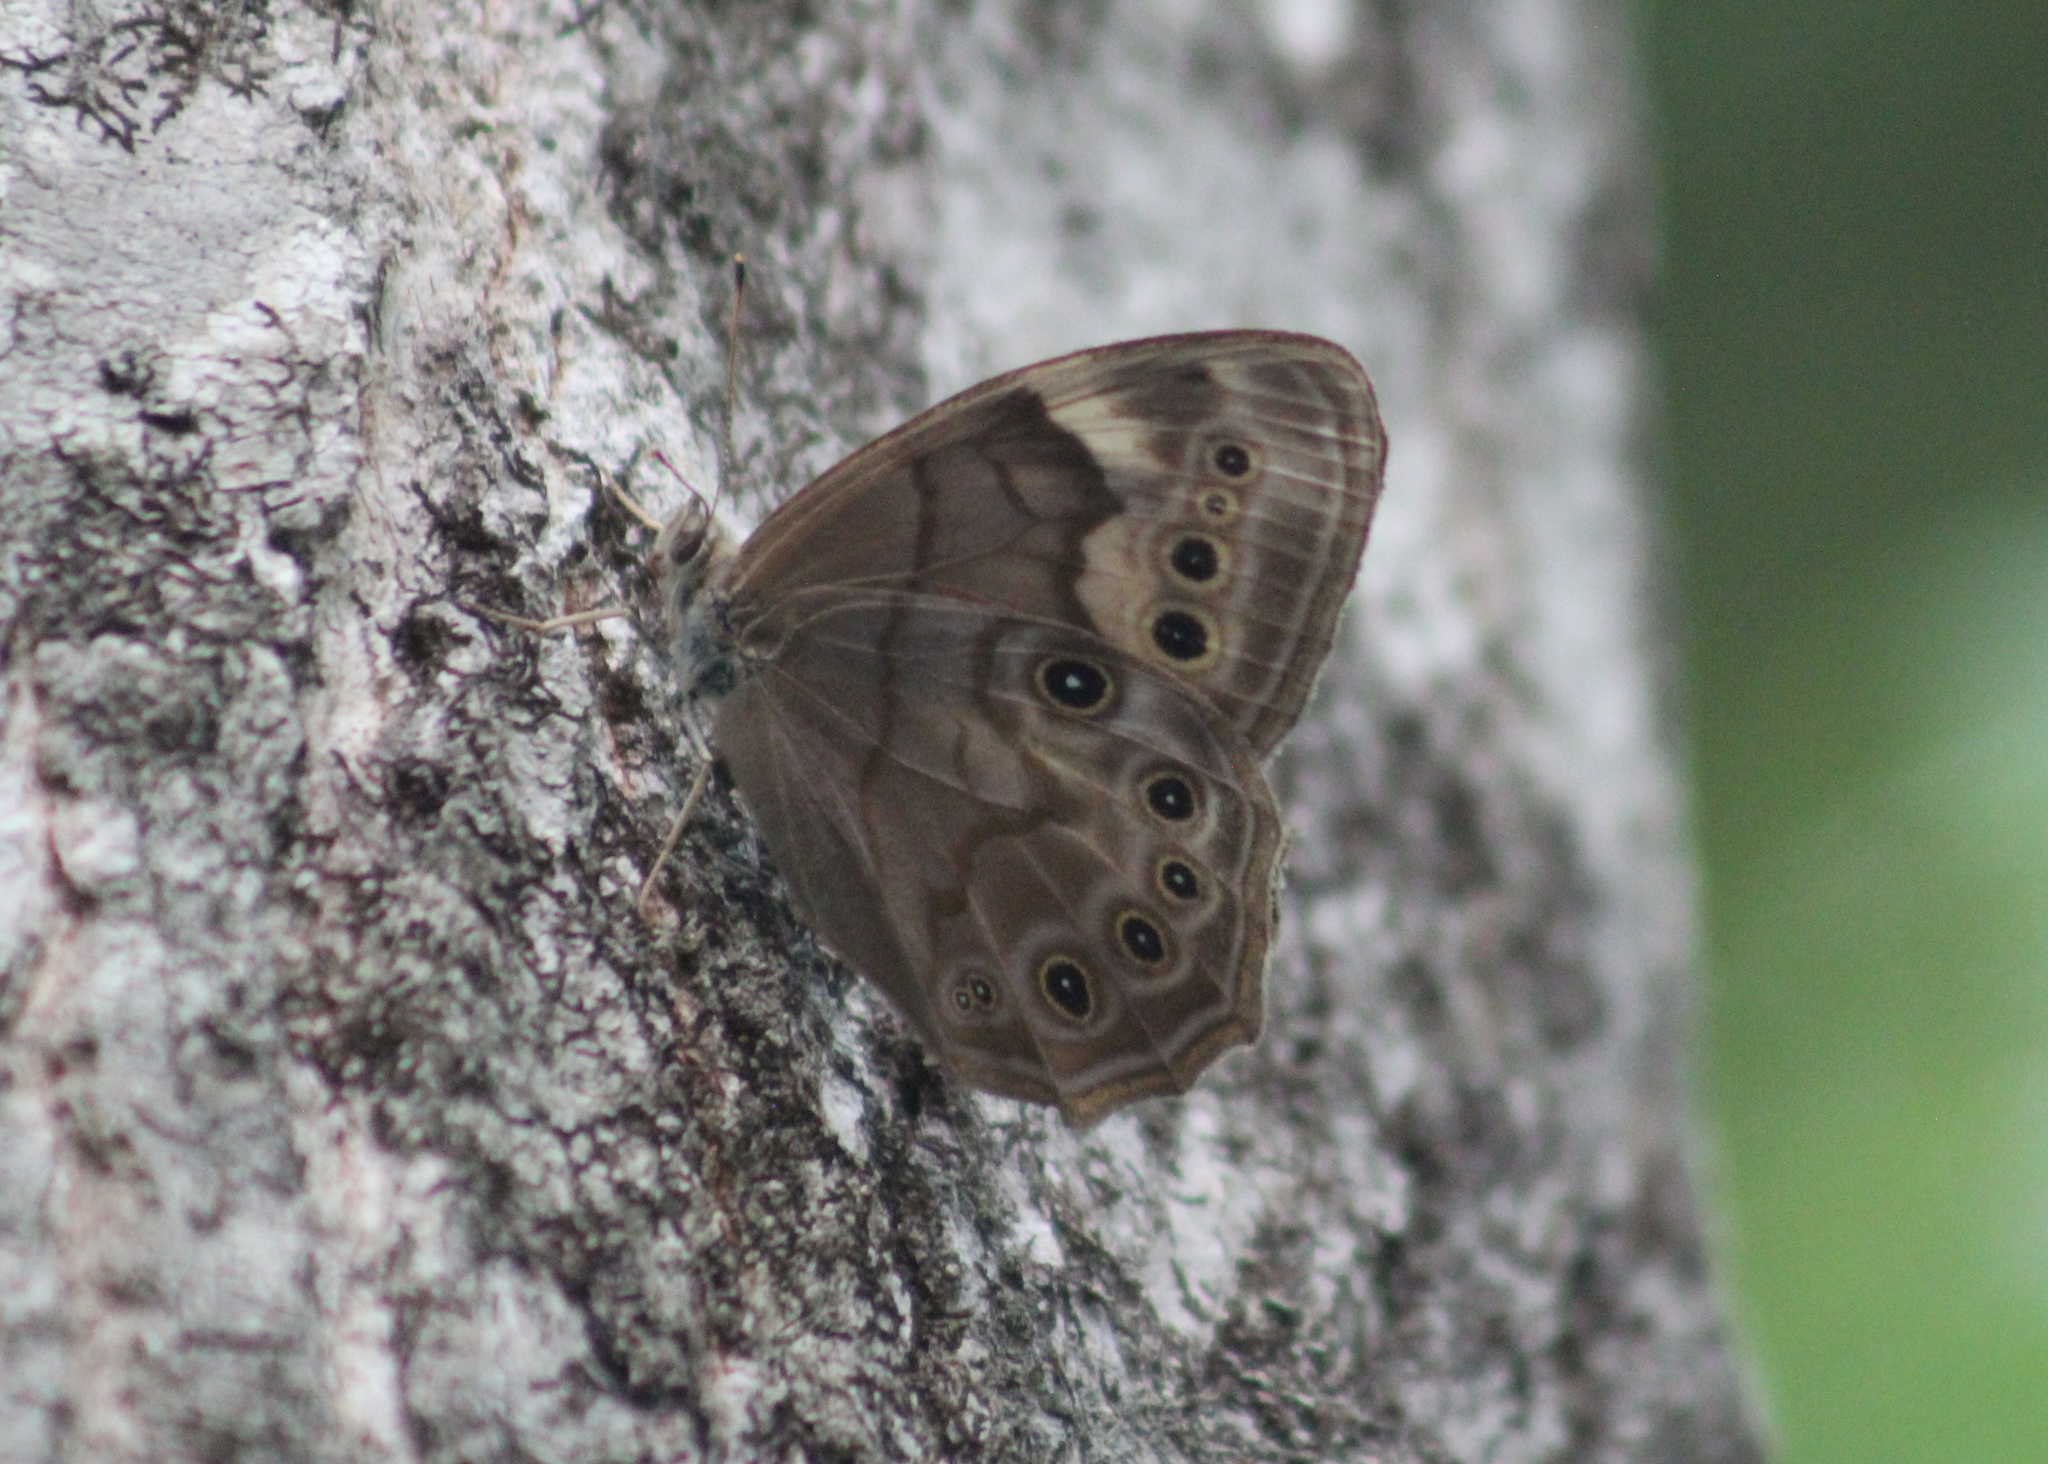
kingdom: Animalia
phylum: Arthropoda
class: Insecta
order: Lepidoptera
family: Nymphalidae
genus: Lethe
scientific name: Lethe anthedon
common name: Northern pearly-eye
